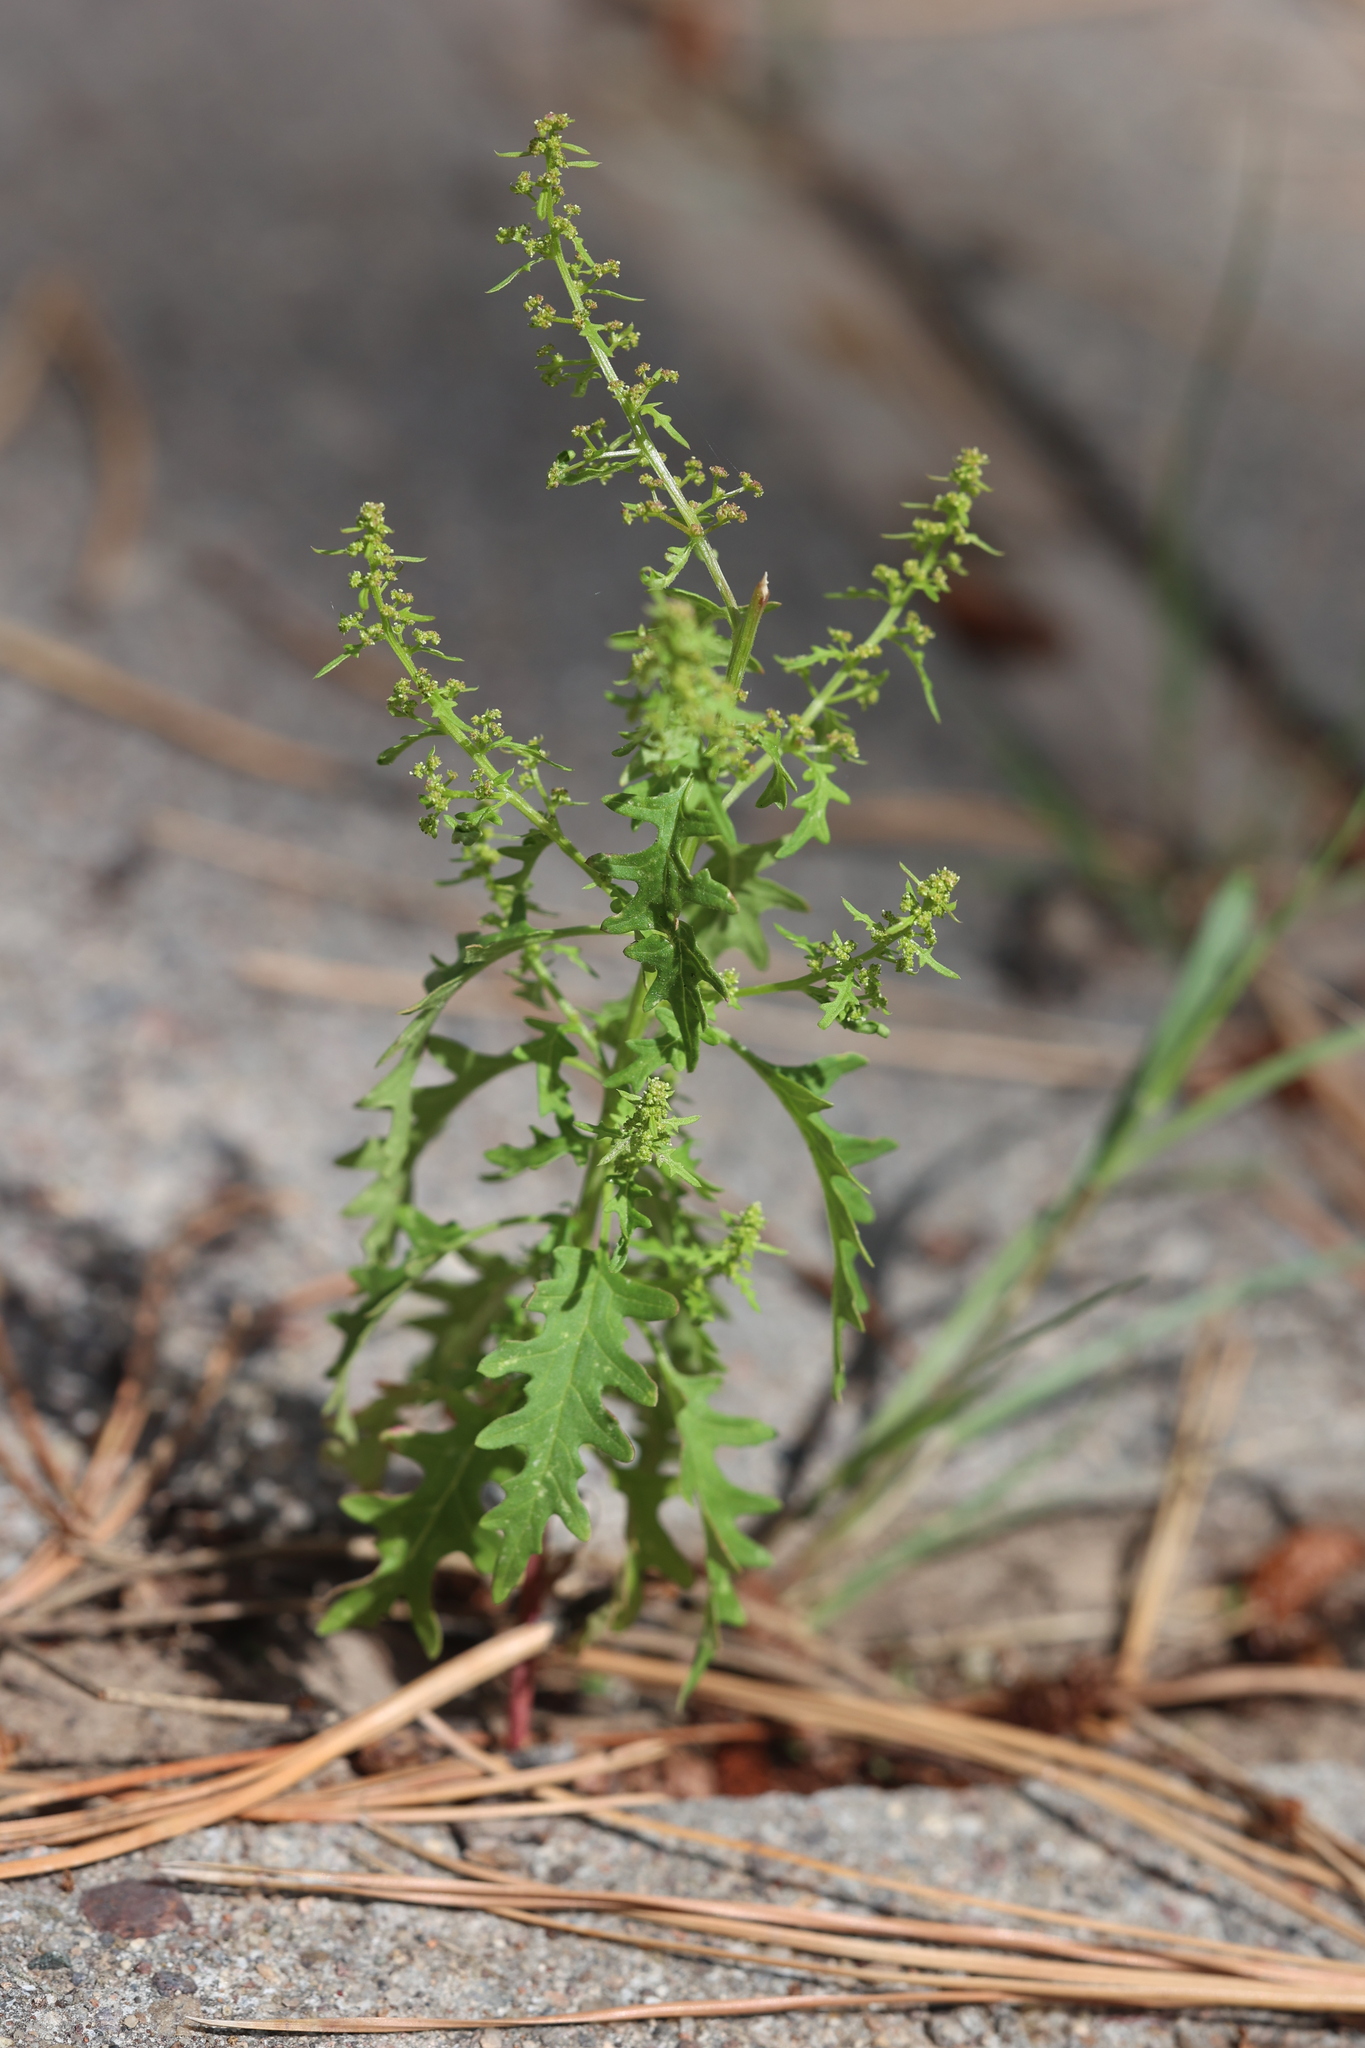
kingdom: Plantae
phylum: Tracheophyta
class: Magnoliopsida
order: Caryophyllales
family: Amaranthaceae
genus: Dysphania
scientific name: Dysphania incisa
